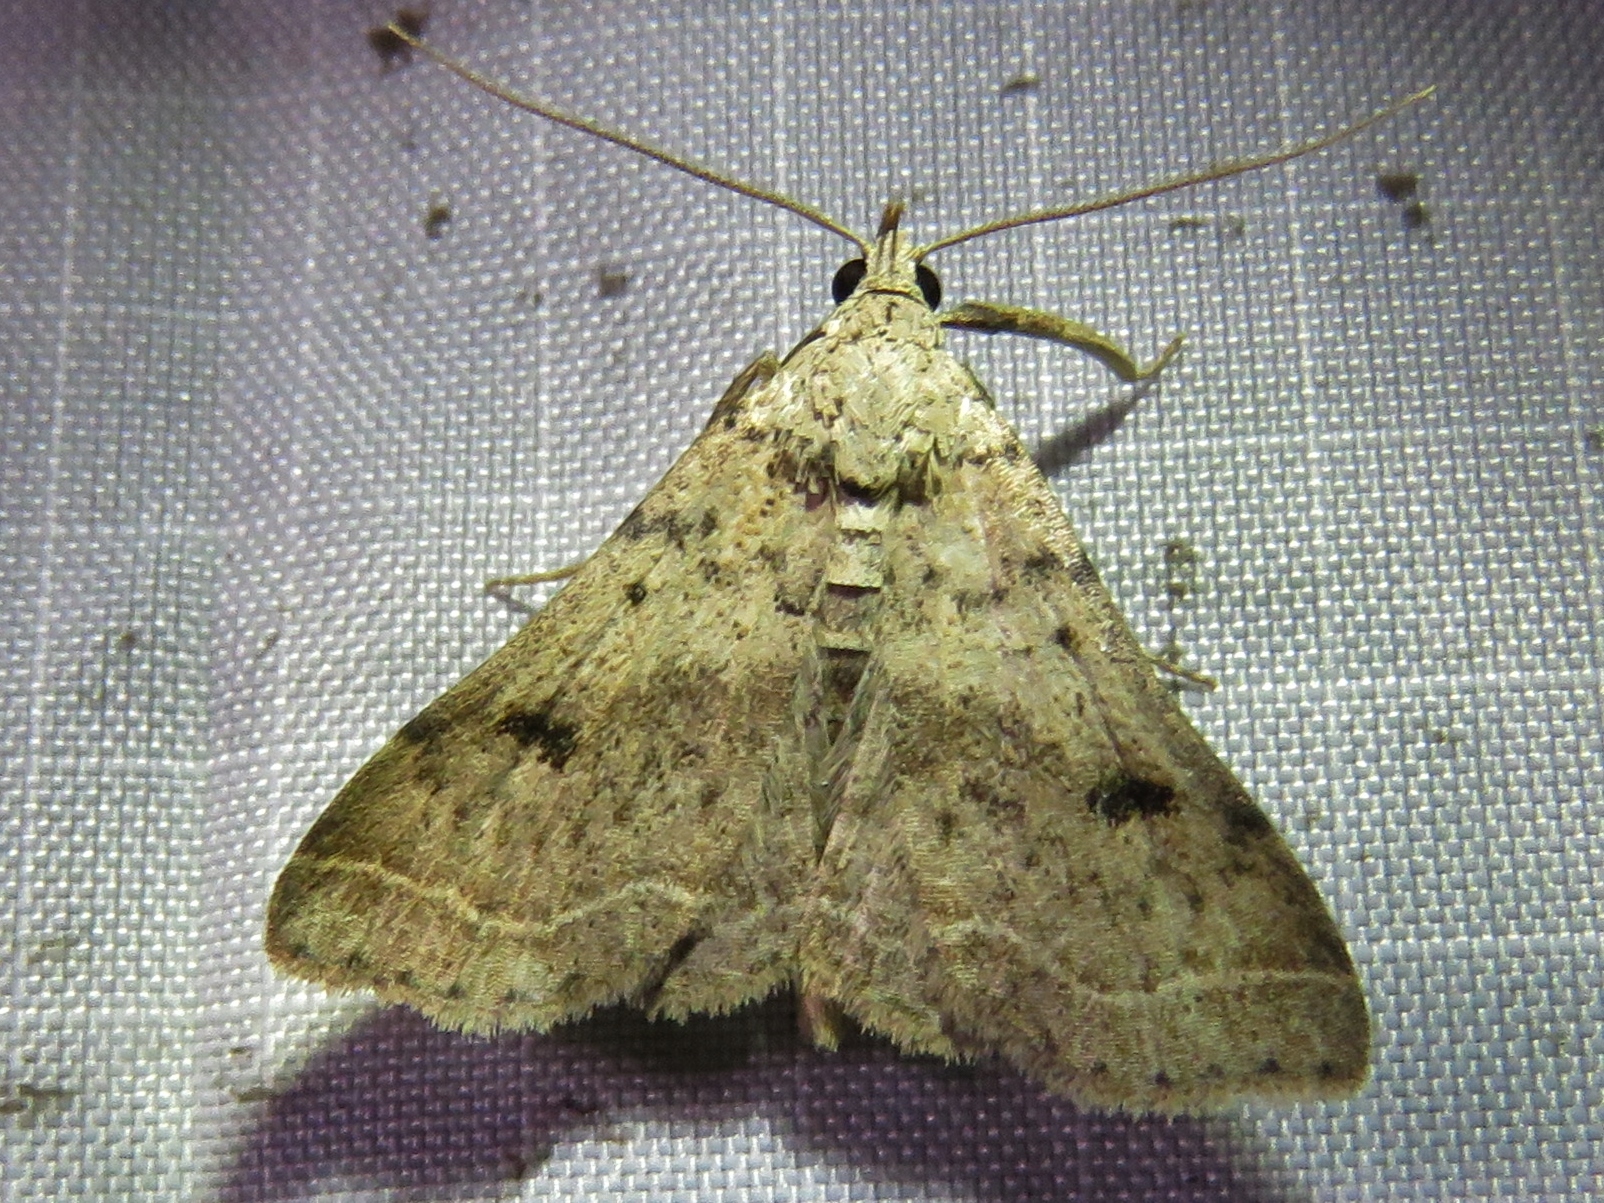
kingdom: Animalia
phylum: Arthropoda
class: Insecta
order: Lepidoptera
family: Erebidae
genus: Bleptina
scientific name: Bleptina caradrinalis
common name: Bent-winged owlet
